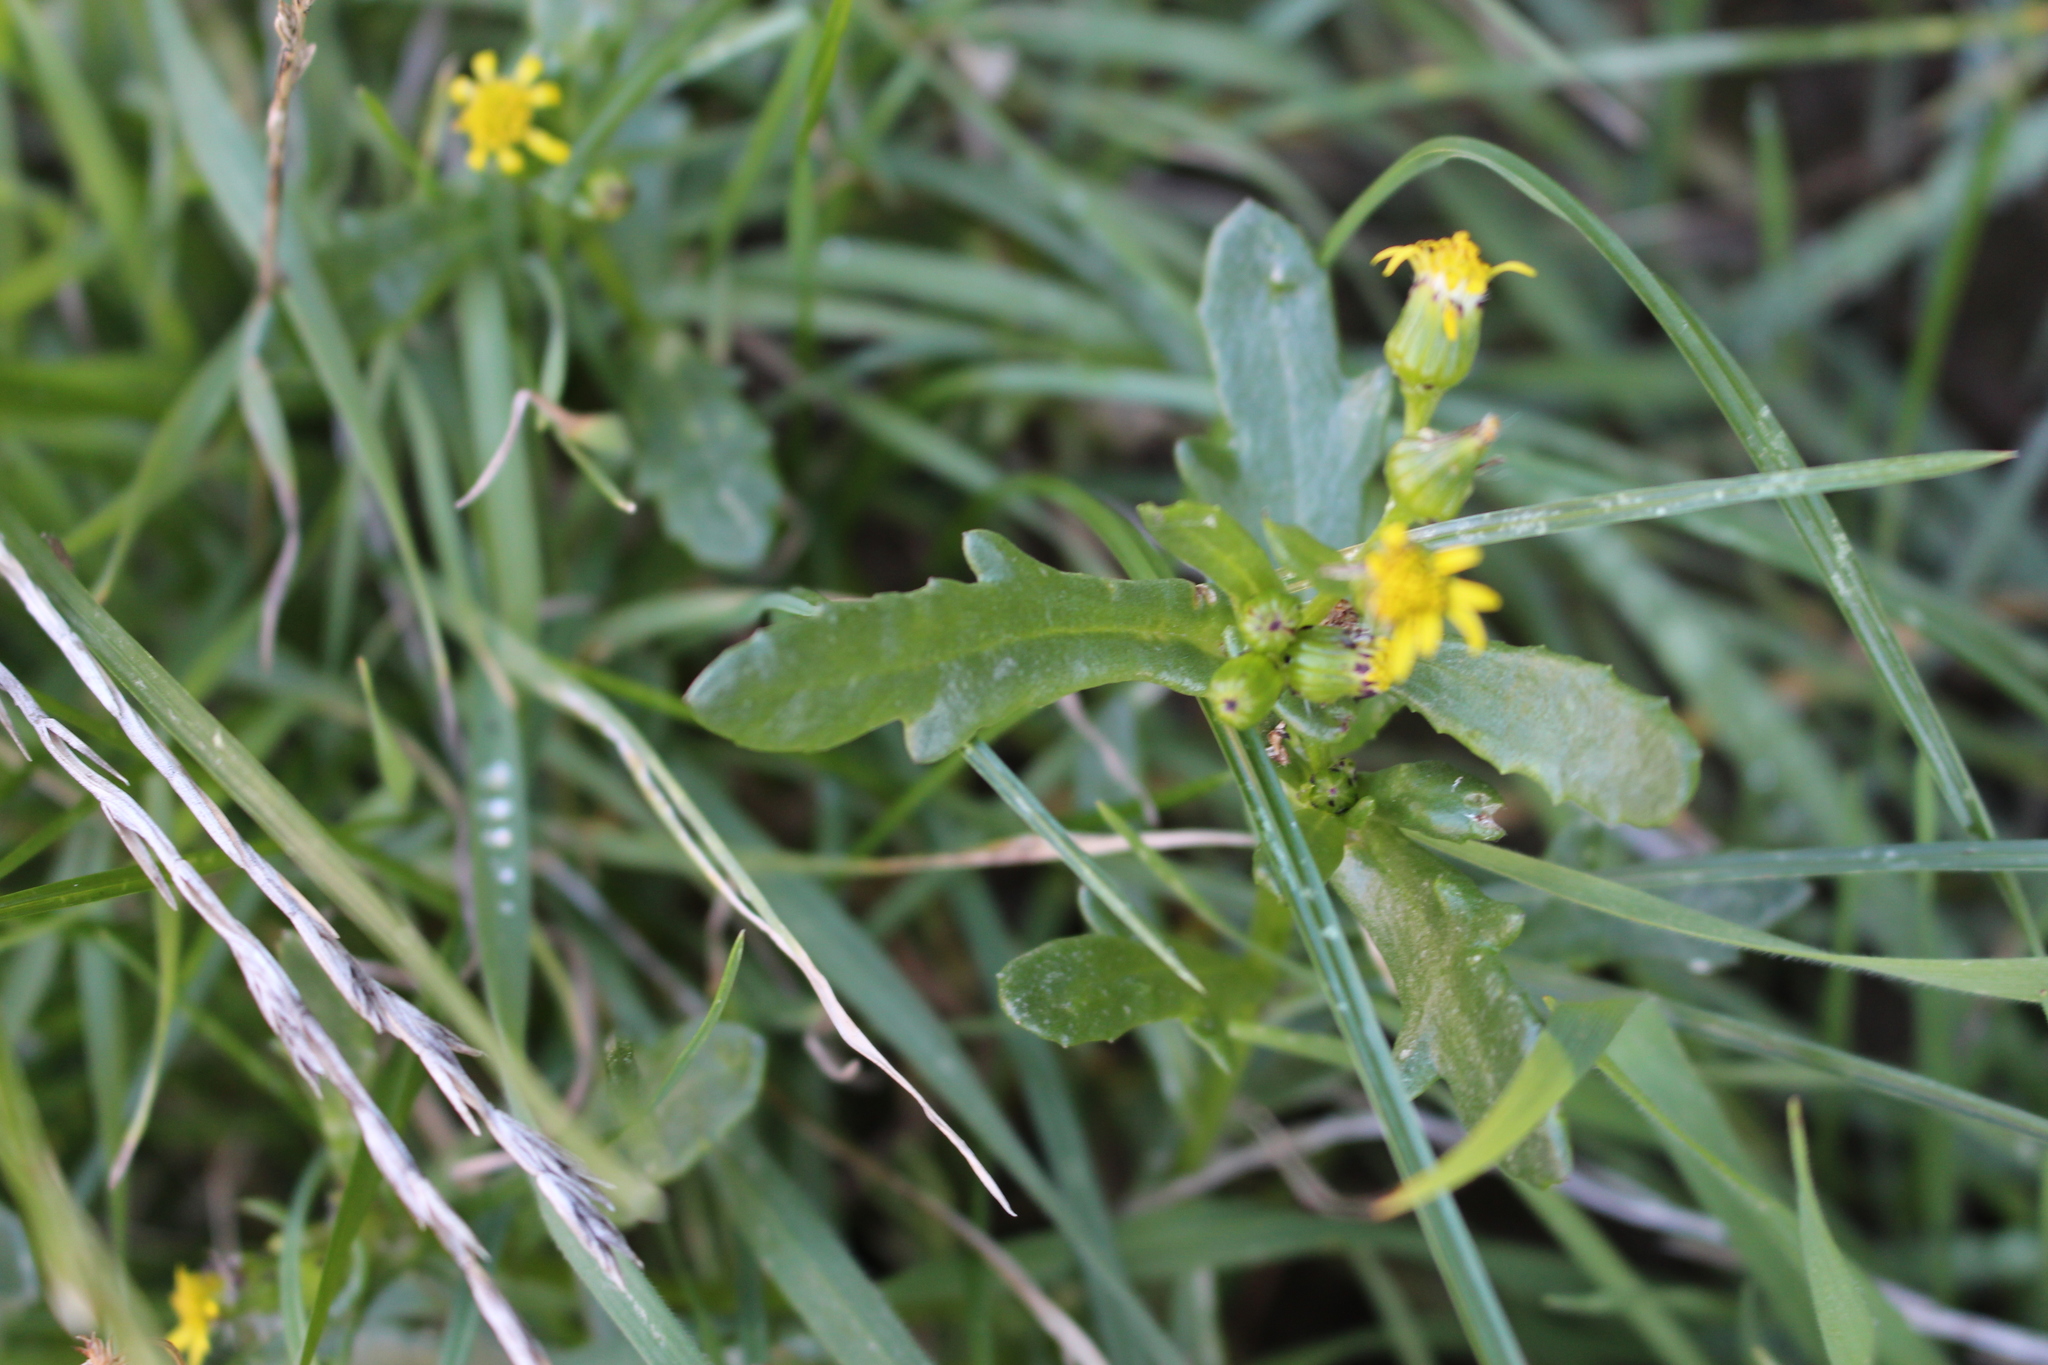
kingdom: Plantae
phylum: Tracheophyta
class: Magnoliopsida
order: Asterales
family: Asteraceae
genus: Senecio
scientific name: Senecio carnosulus
